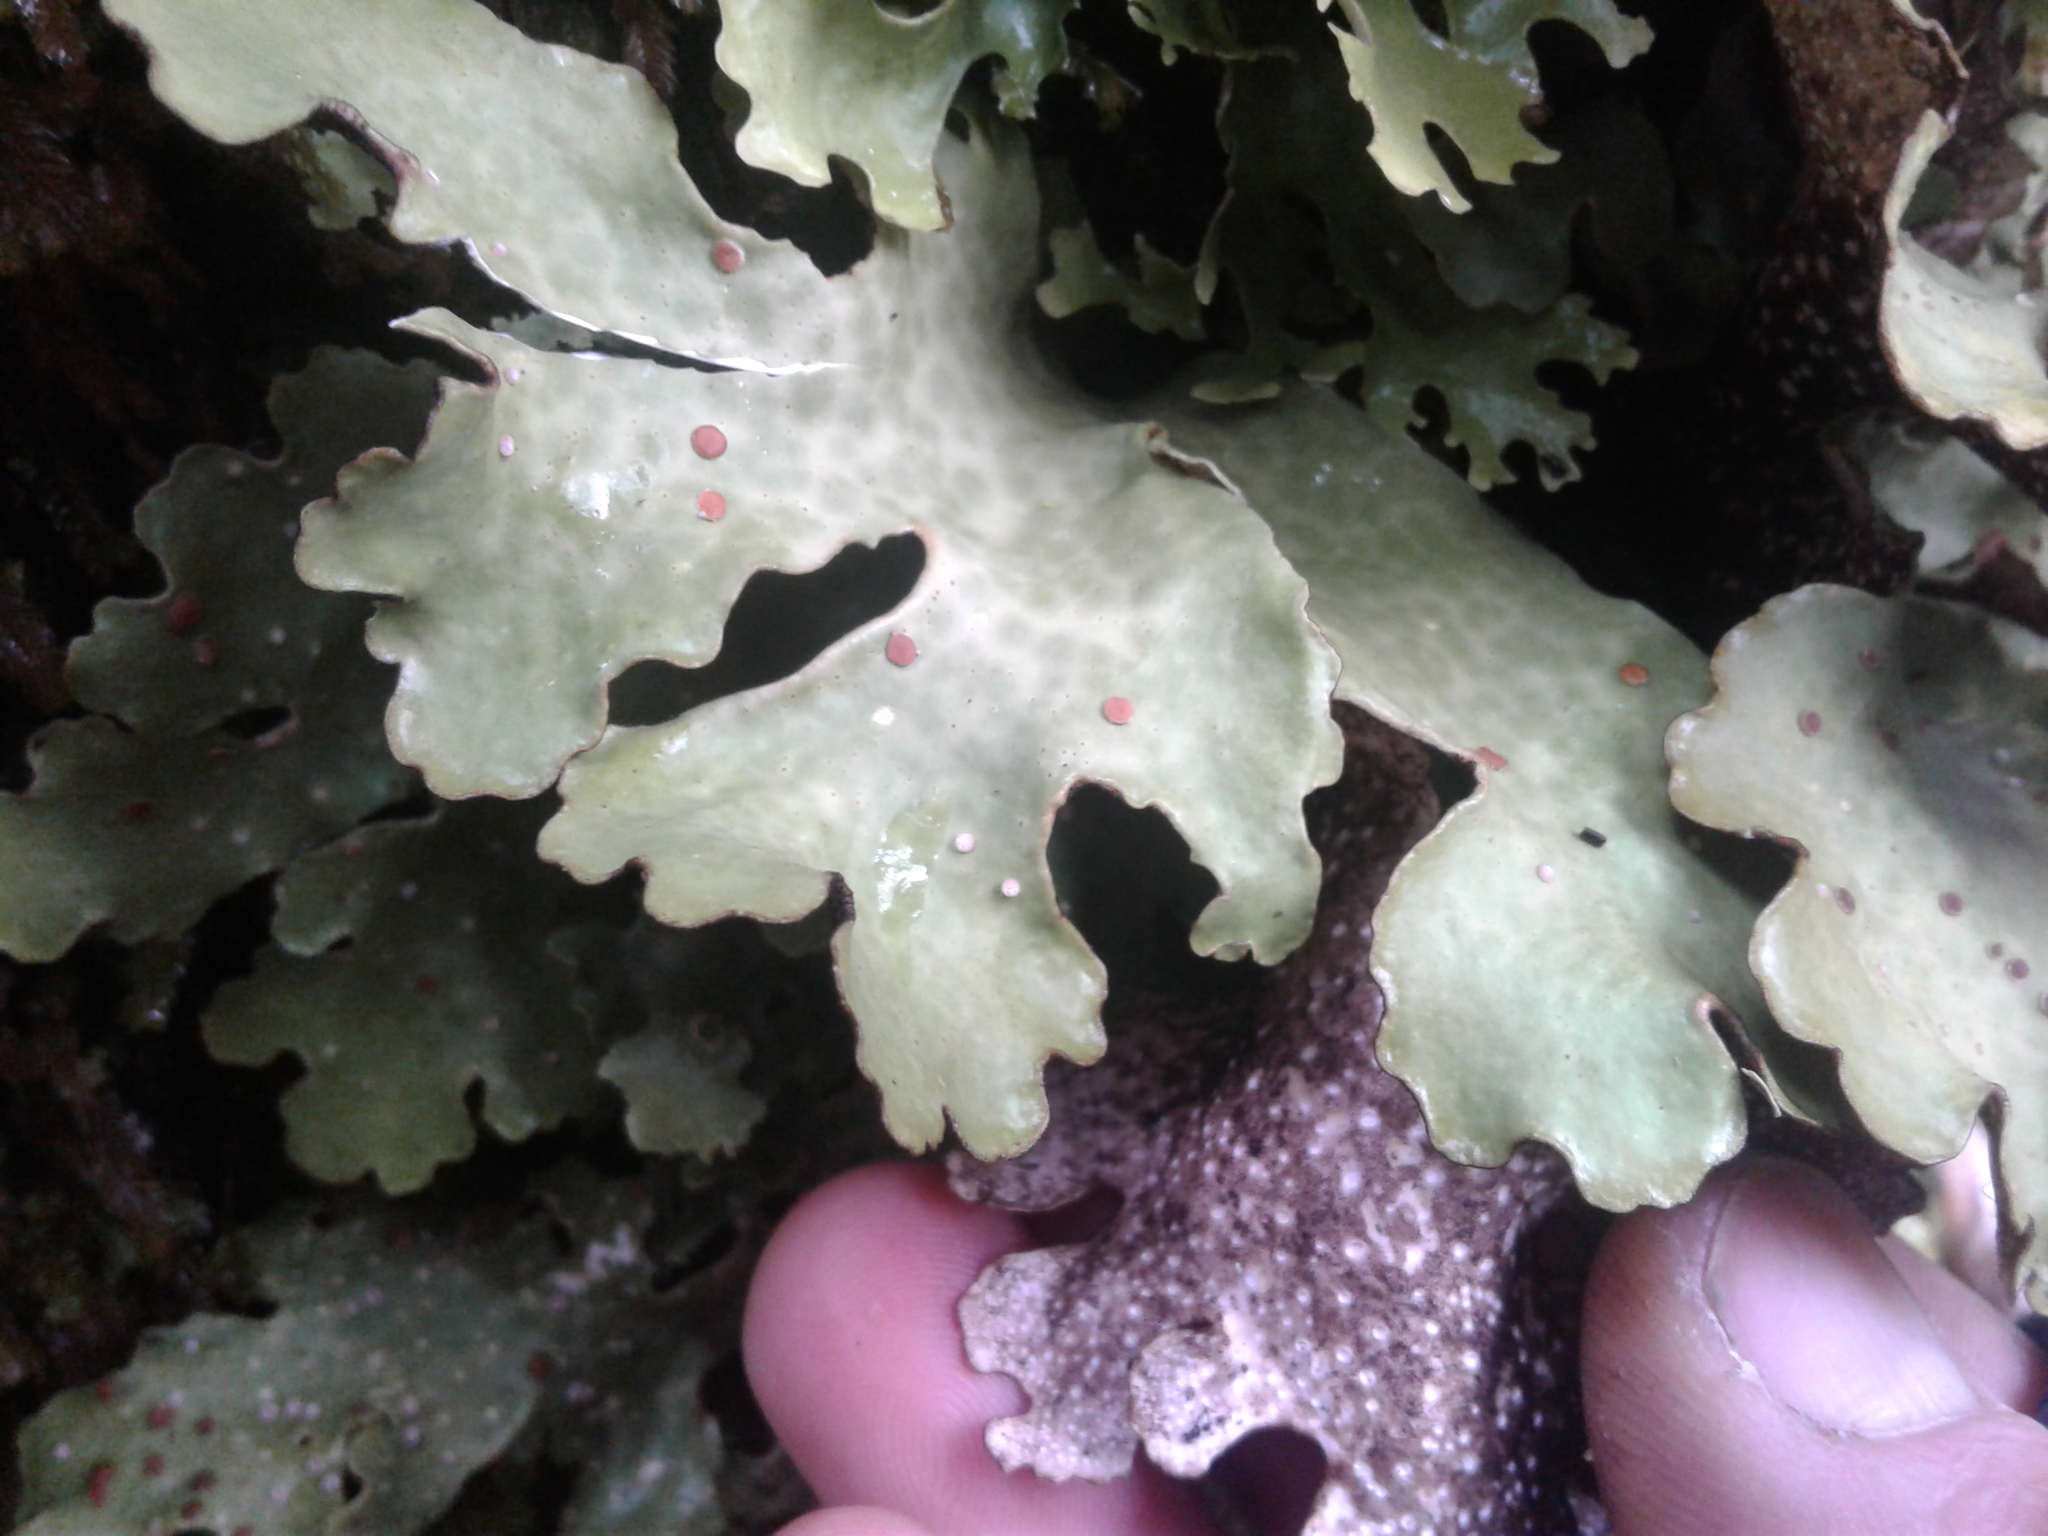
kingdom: Fungi
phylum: Ascomycota
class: Lecanoromycetes
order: Peltigerales
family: Lobariaceae
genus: Sticta
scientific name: Sticta latifrons
